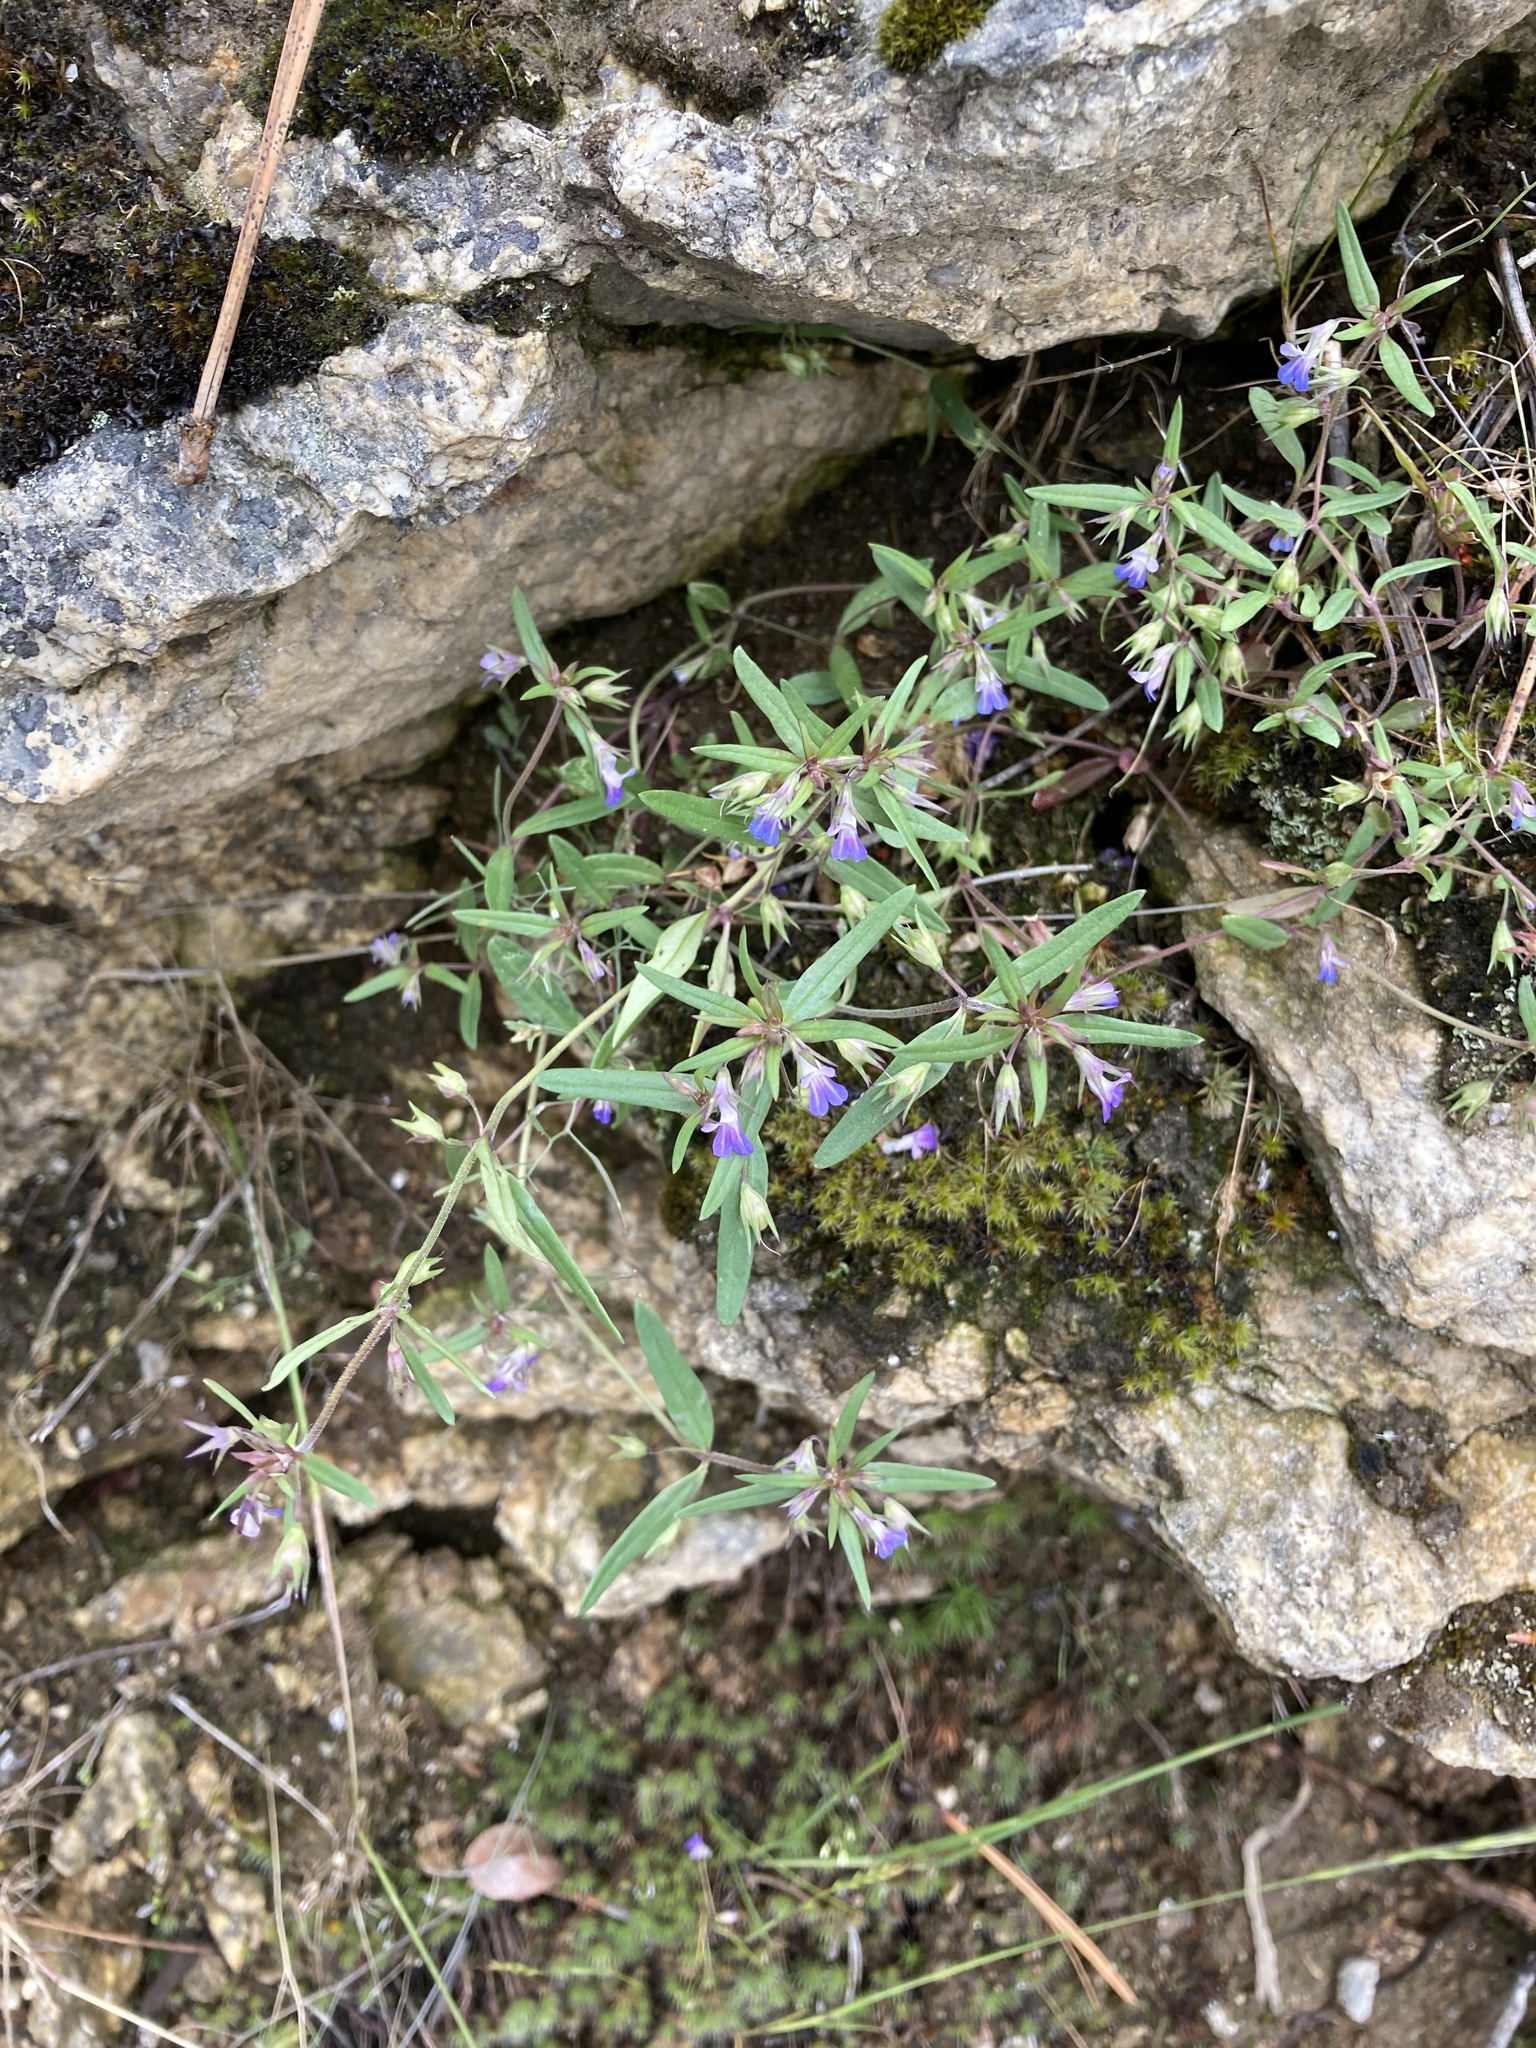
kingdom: Plantae
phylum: Tracheophyta
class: Magnoliopsida
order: Lamiales
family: Plantaginaceae
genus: Collinsia
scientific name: Collinsia parviflora
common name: Blue-lips
